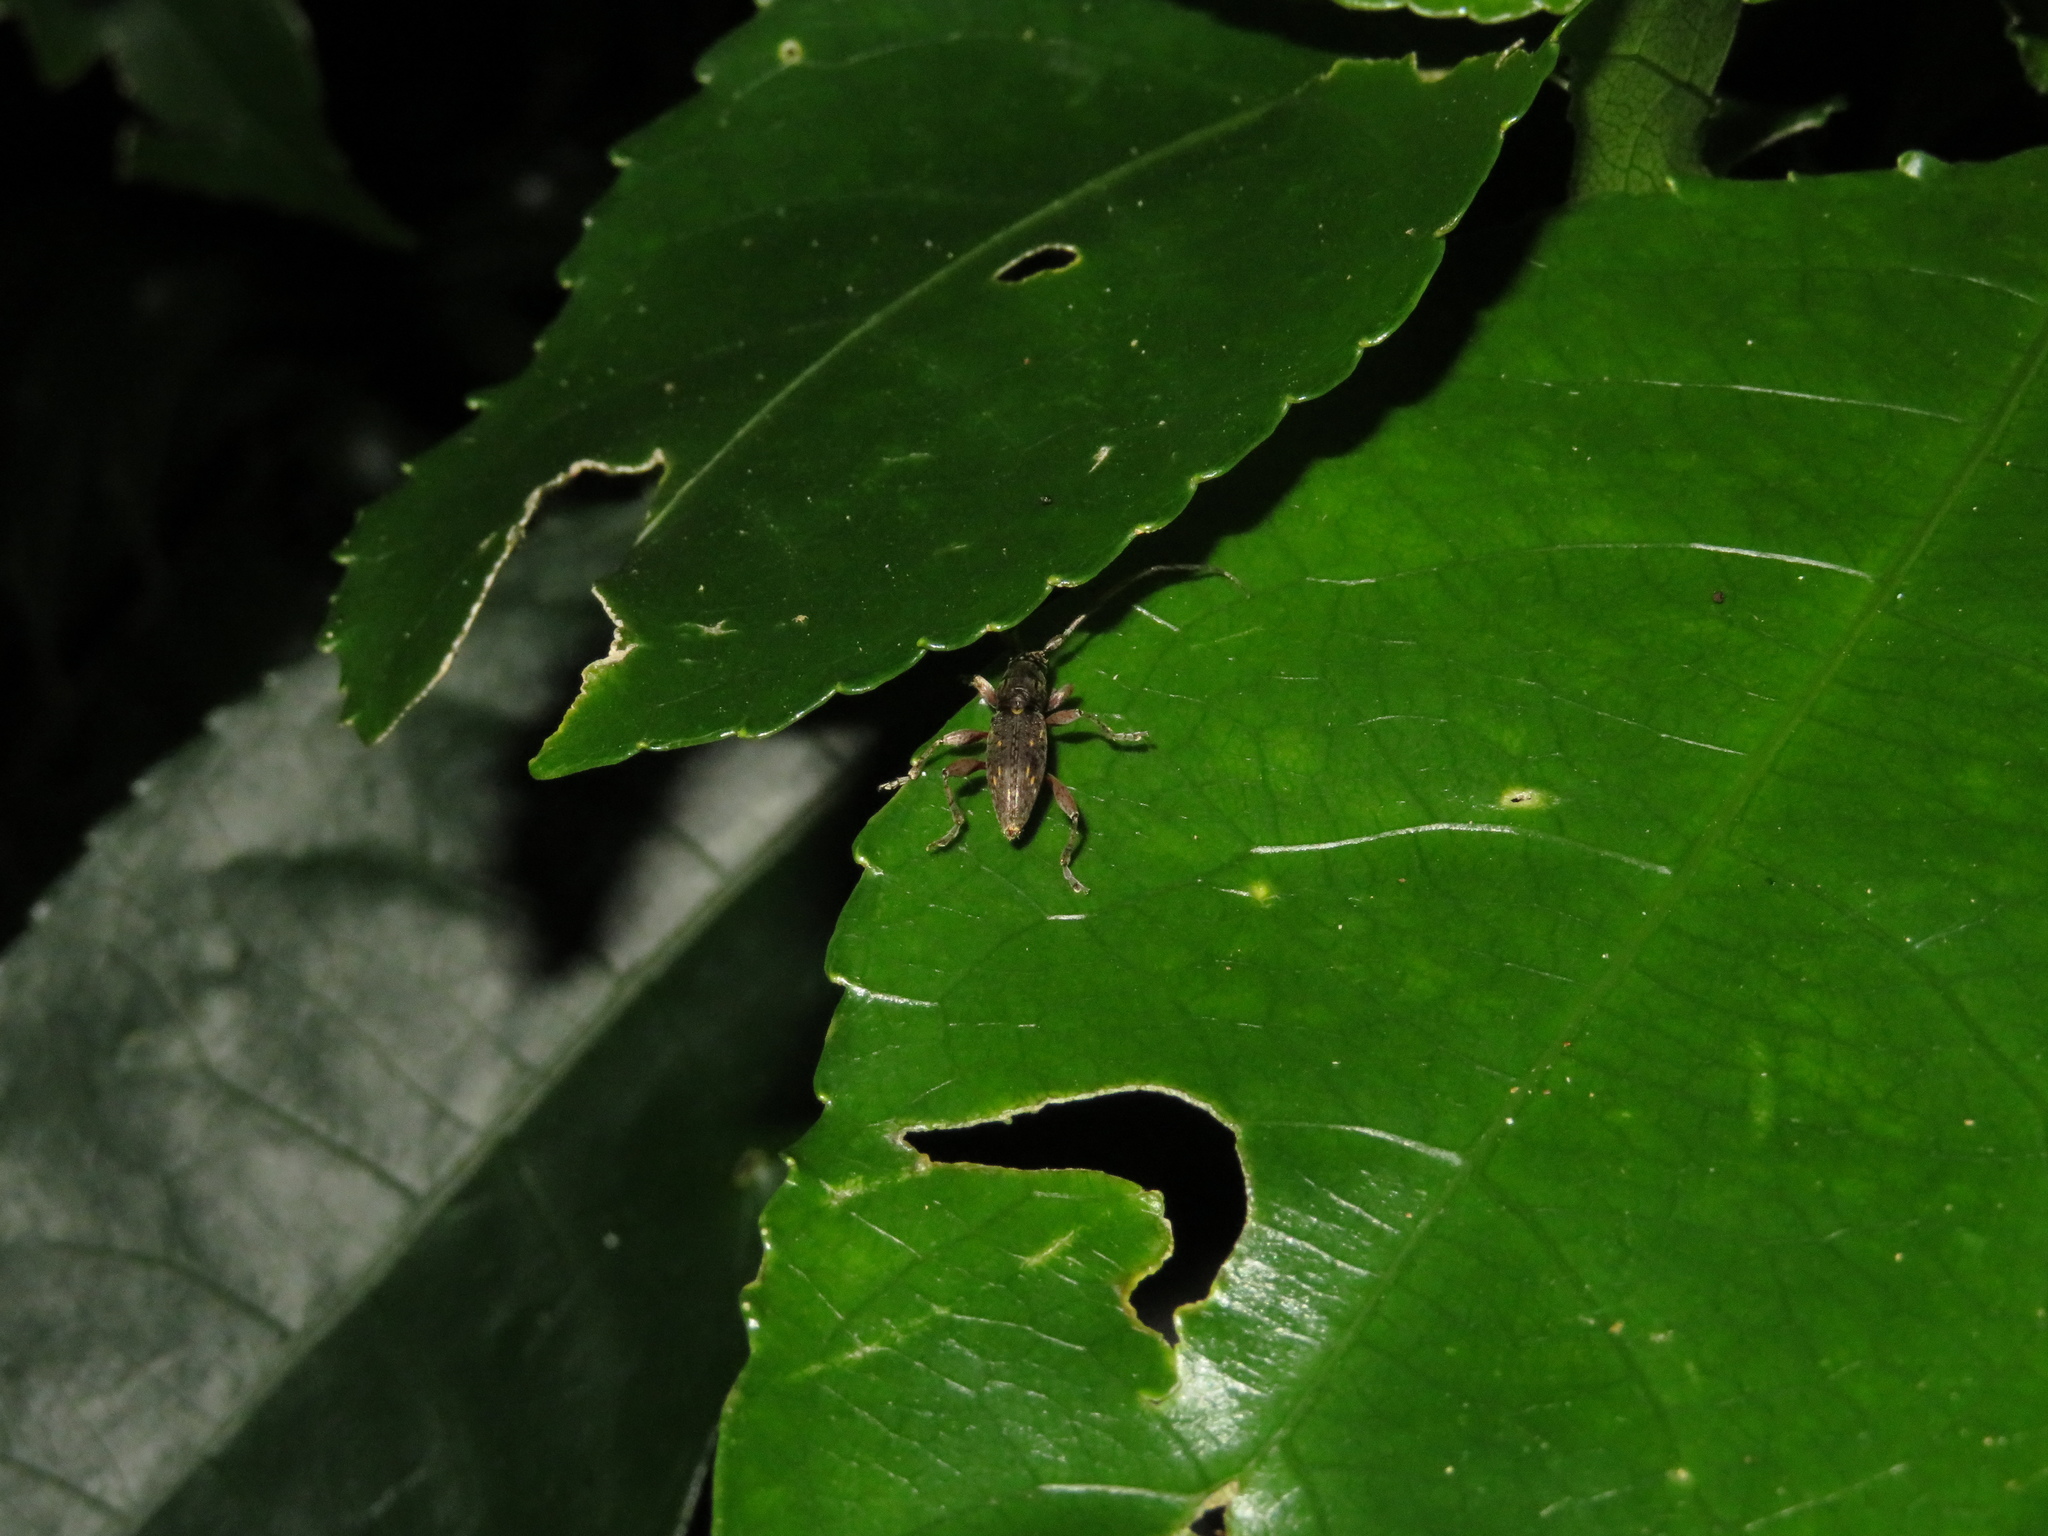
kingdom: Animalia
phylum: Arthropoda
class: Insecta
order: Coleoptera
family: Cerambycidae
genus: Xylotoles
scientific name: Xylotoles griseus
